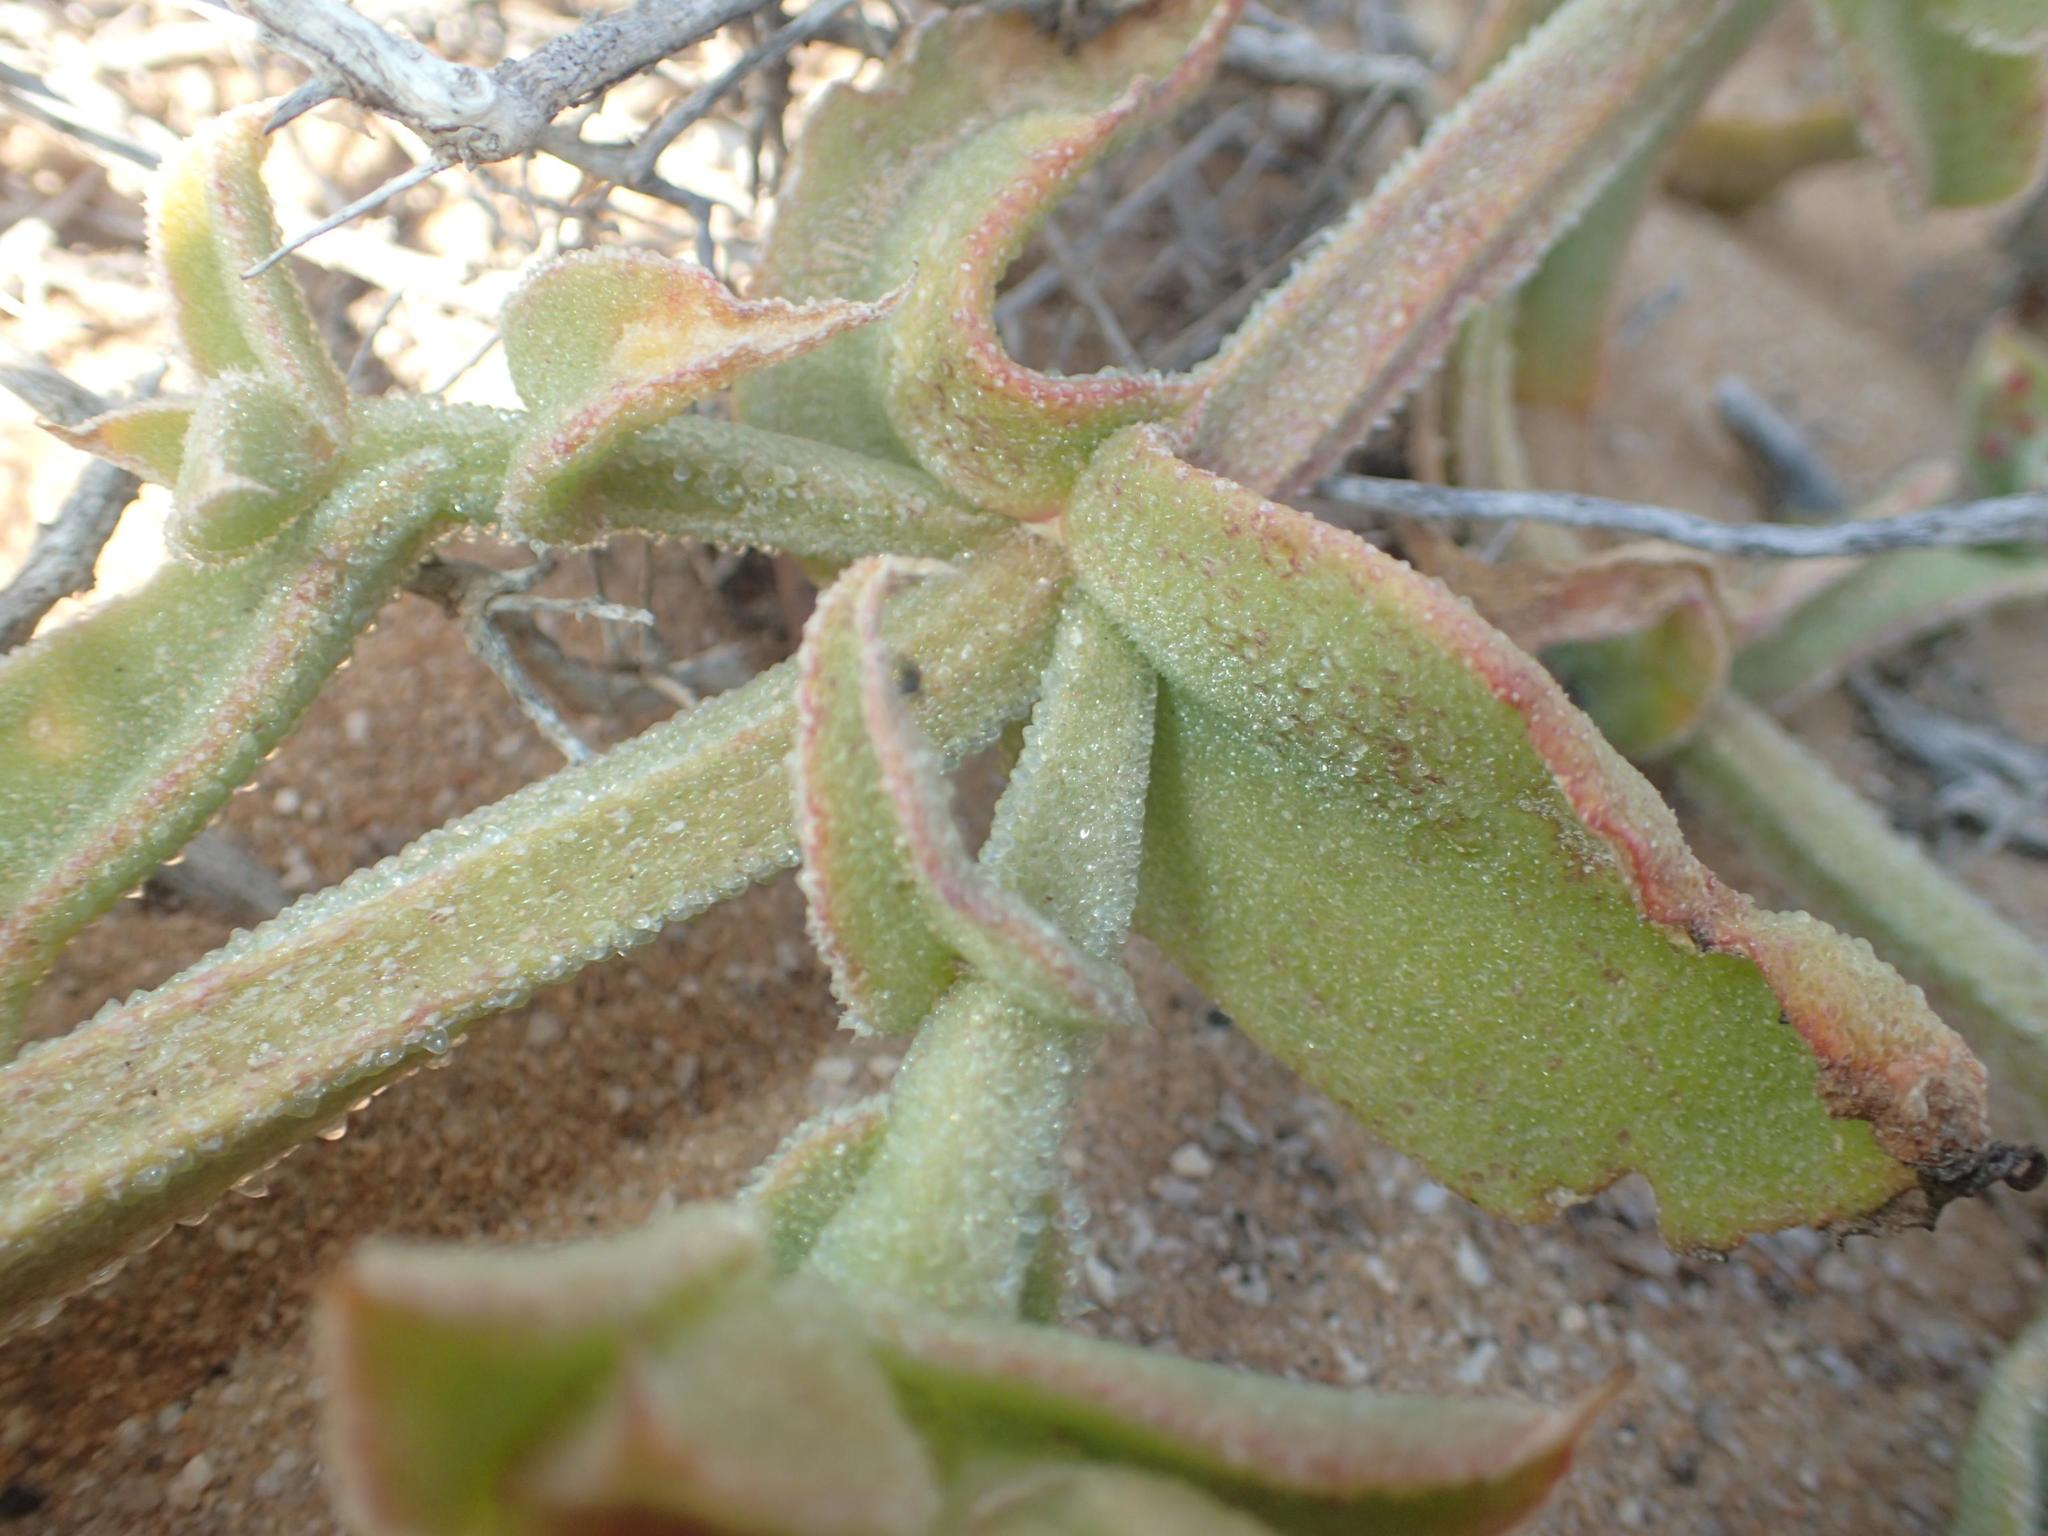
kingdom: Plantae
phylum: Tracheophyta
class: Magnoliopsida
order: Caryophyllales
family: Aizoaceae
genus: Mesembryanthemum
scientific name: Mesembryanthemum guerichianum
